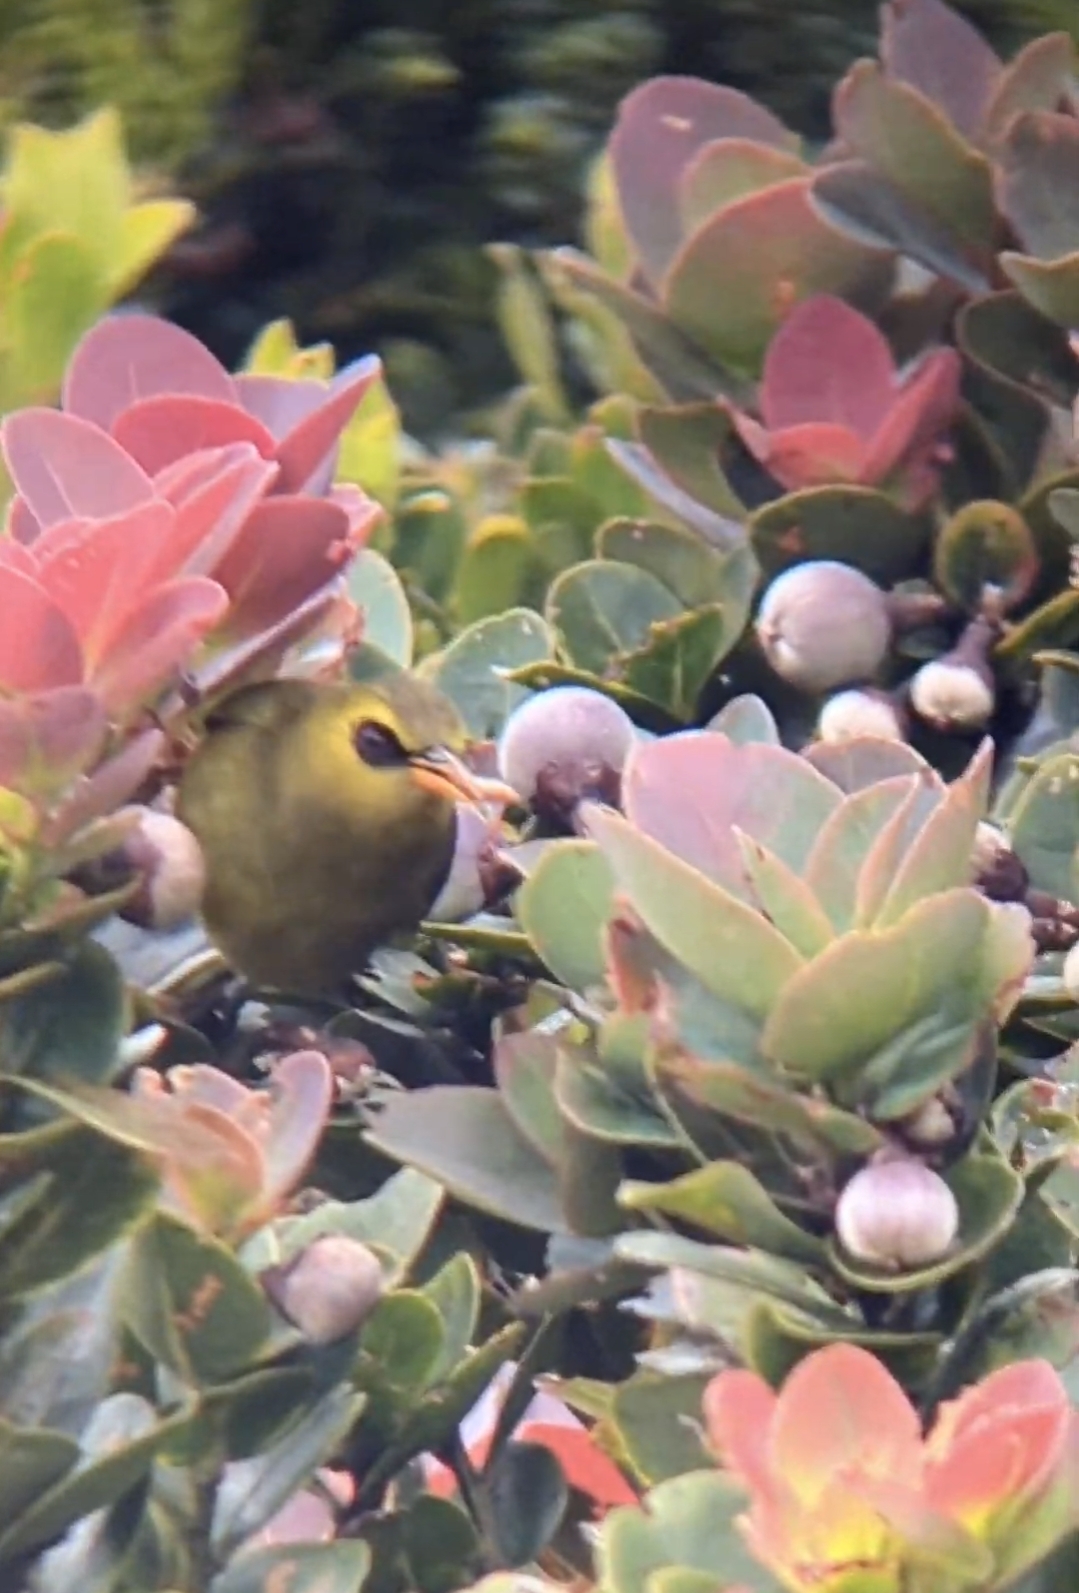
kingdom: Animalia
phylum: Chordata
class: Aves
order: Passeriformes
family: Zosteropidae
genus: Chlorocharis
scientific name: Chlorocharis emiliae
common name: Mountain blackeye
